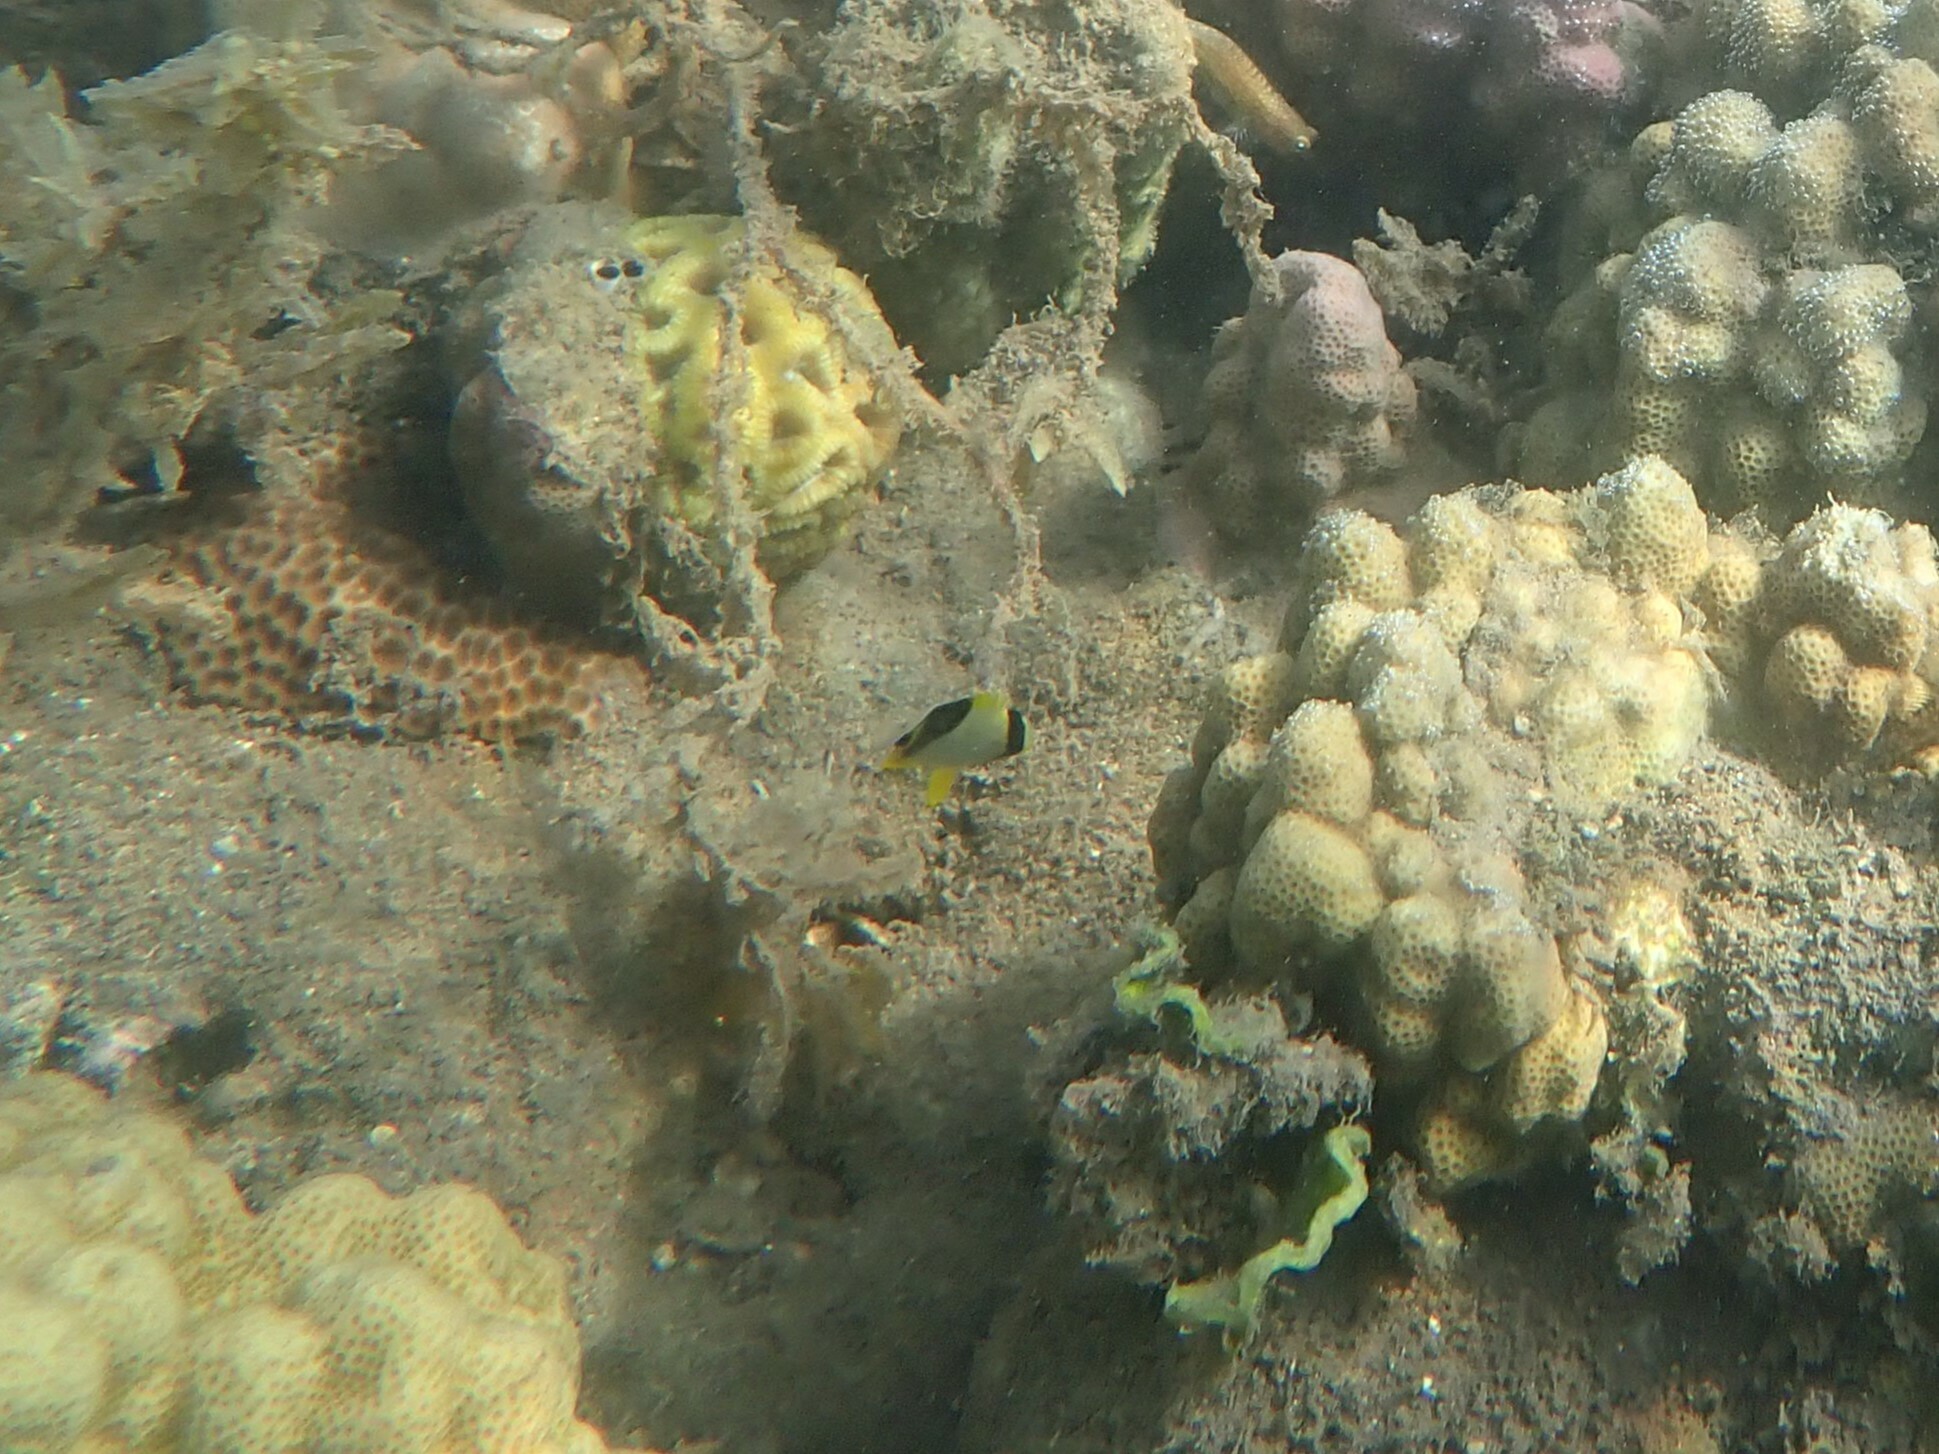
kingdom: Animalia
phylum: Chordata
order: Perciformes
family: Chaetodontidae
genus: Chaetodon
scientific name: Chaetodon ephippium
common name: Saddled butterflyfish
